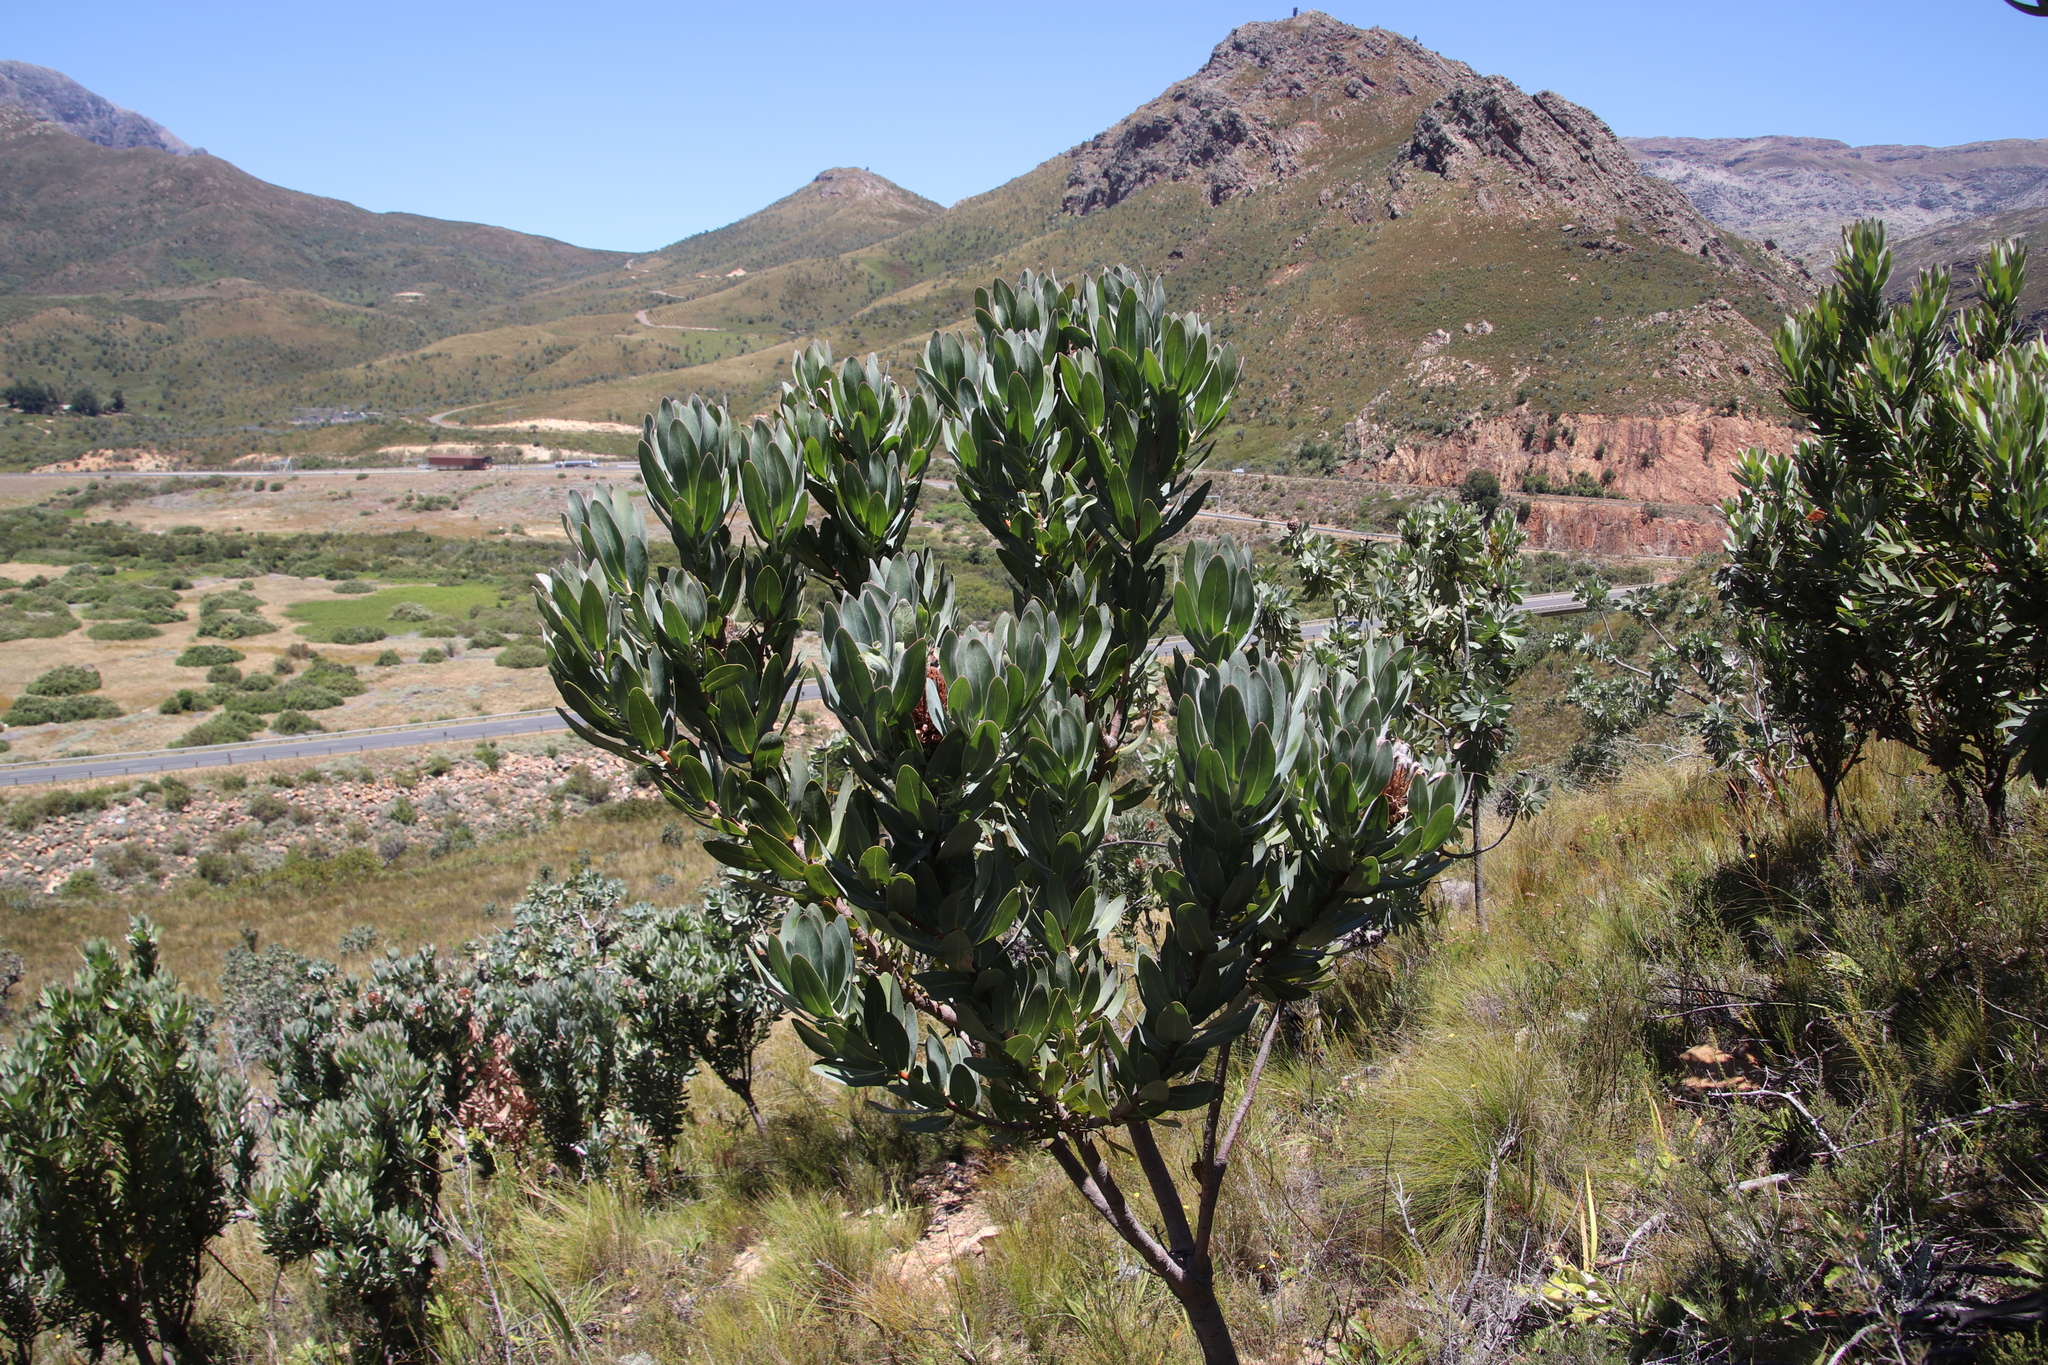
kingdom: Plantae
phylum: Tracheophyta
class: Magnoliopsida
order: Proteales
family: Proteaceae
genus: Protea
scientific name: Protea laurifolia
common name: Grey-leaf sugarbsh
